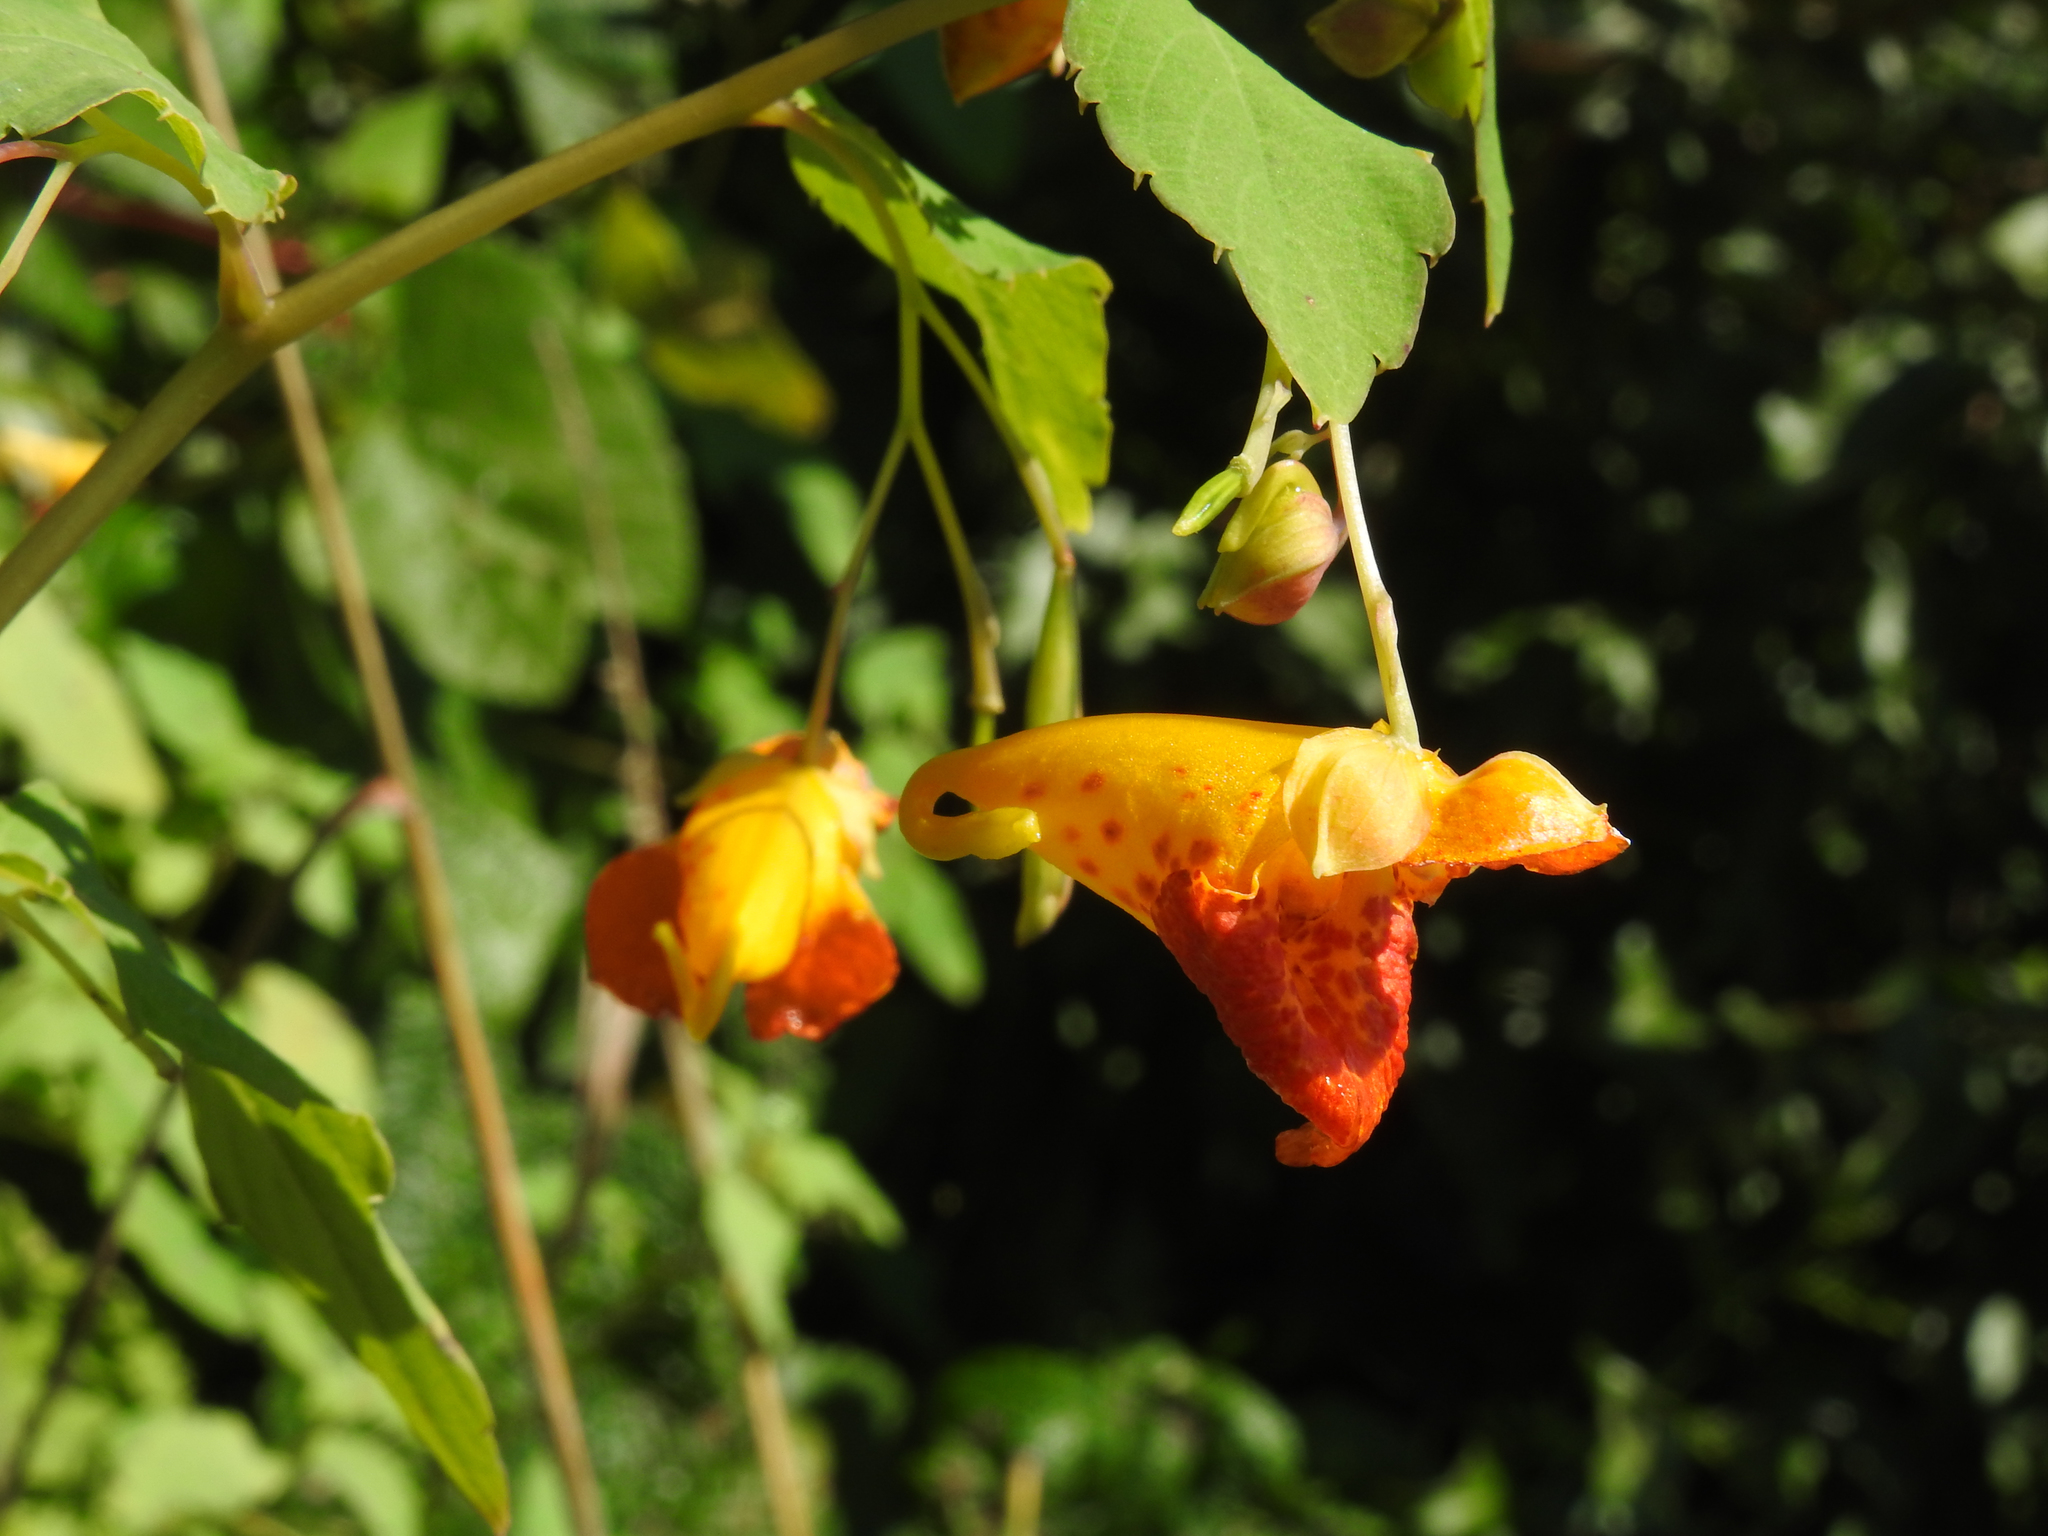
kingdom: Plantae
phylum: Tracheophyta
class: Magnoliopsida
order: Ericales
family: Balsaminaceae
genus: Impatiens
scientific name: Impatiens capensis
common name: Orange balsam
